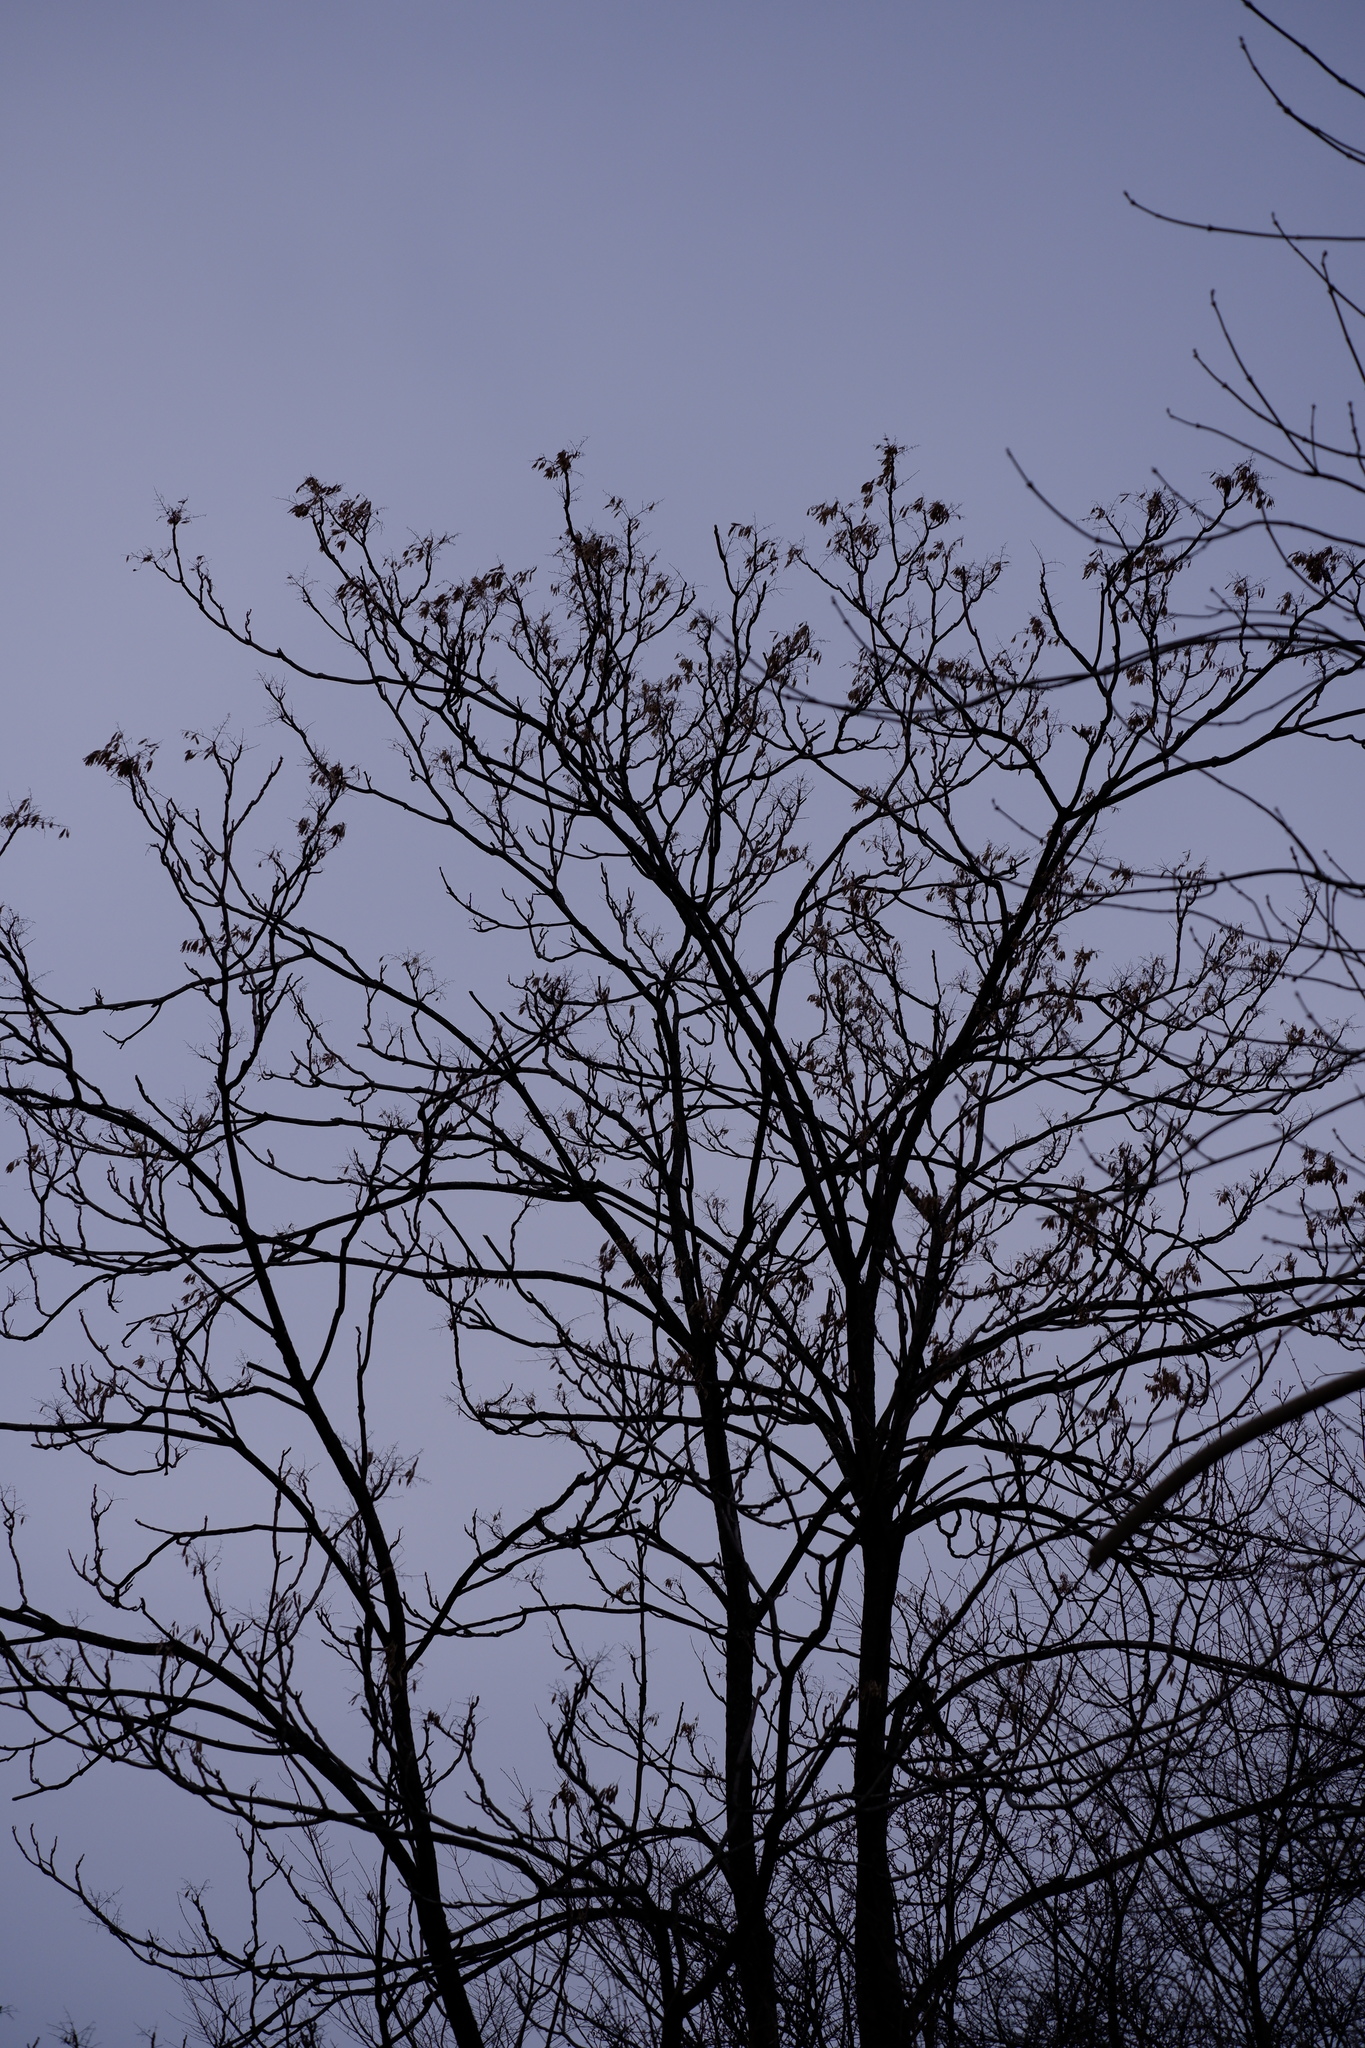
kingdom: Plantae
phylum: Tracheophyta
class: Magnoliopsida
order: Sapindales
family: Simaroubaceae
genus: Ailanthus
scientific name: Ailanthus altissima
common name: Tree-of-heaven
